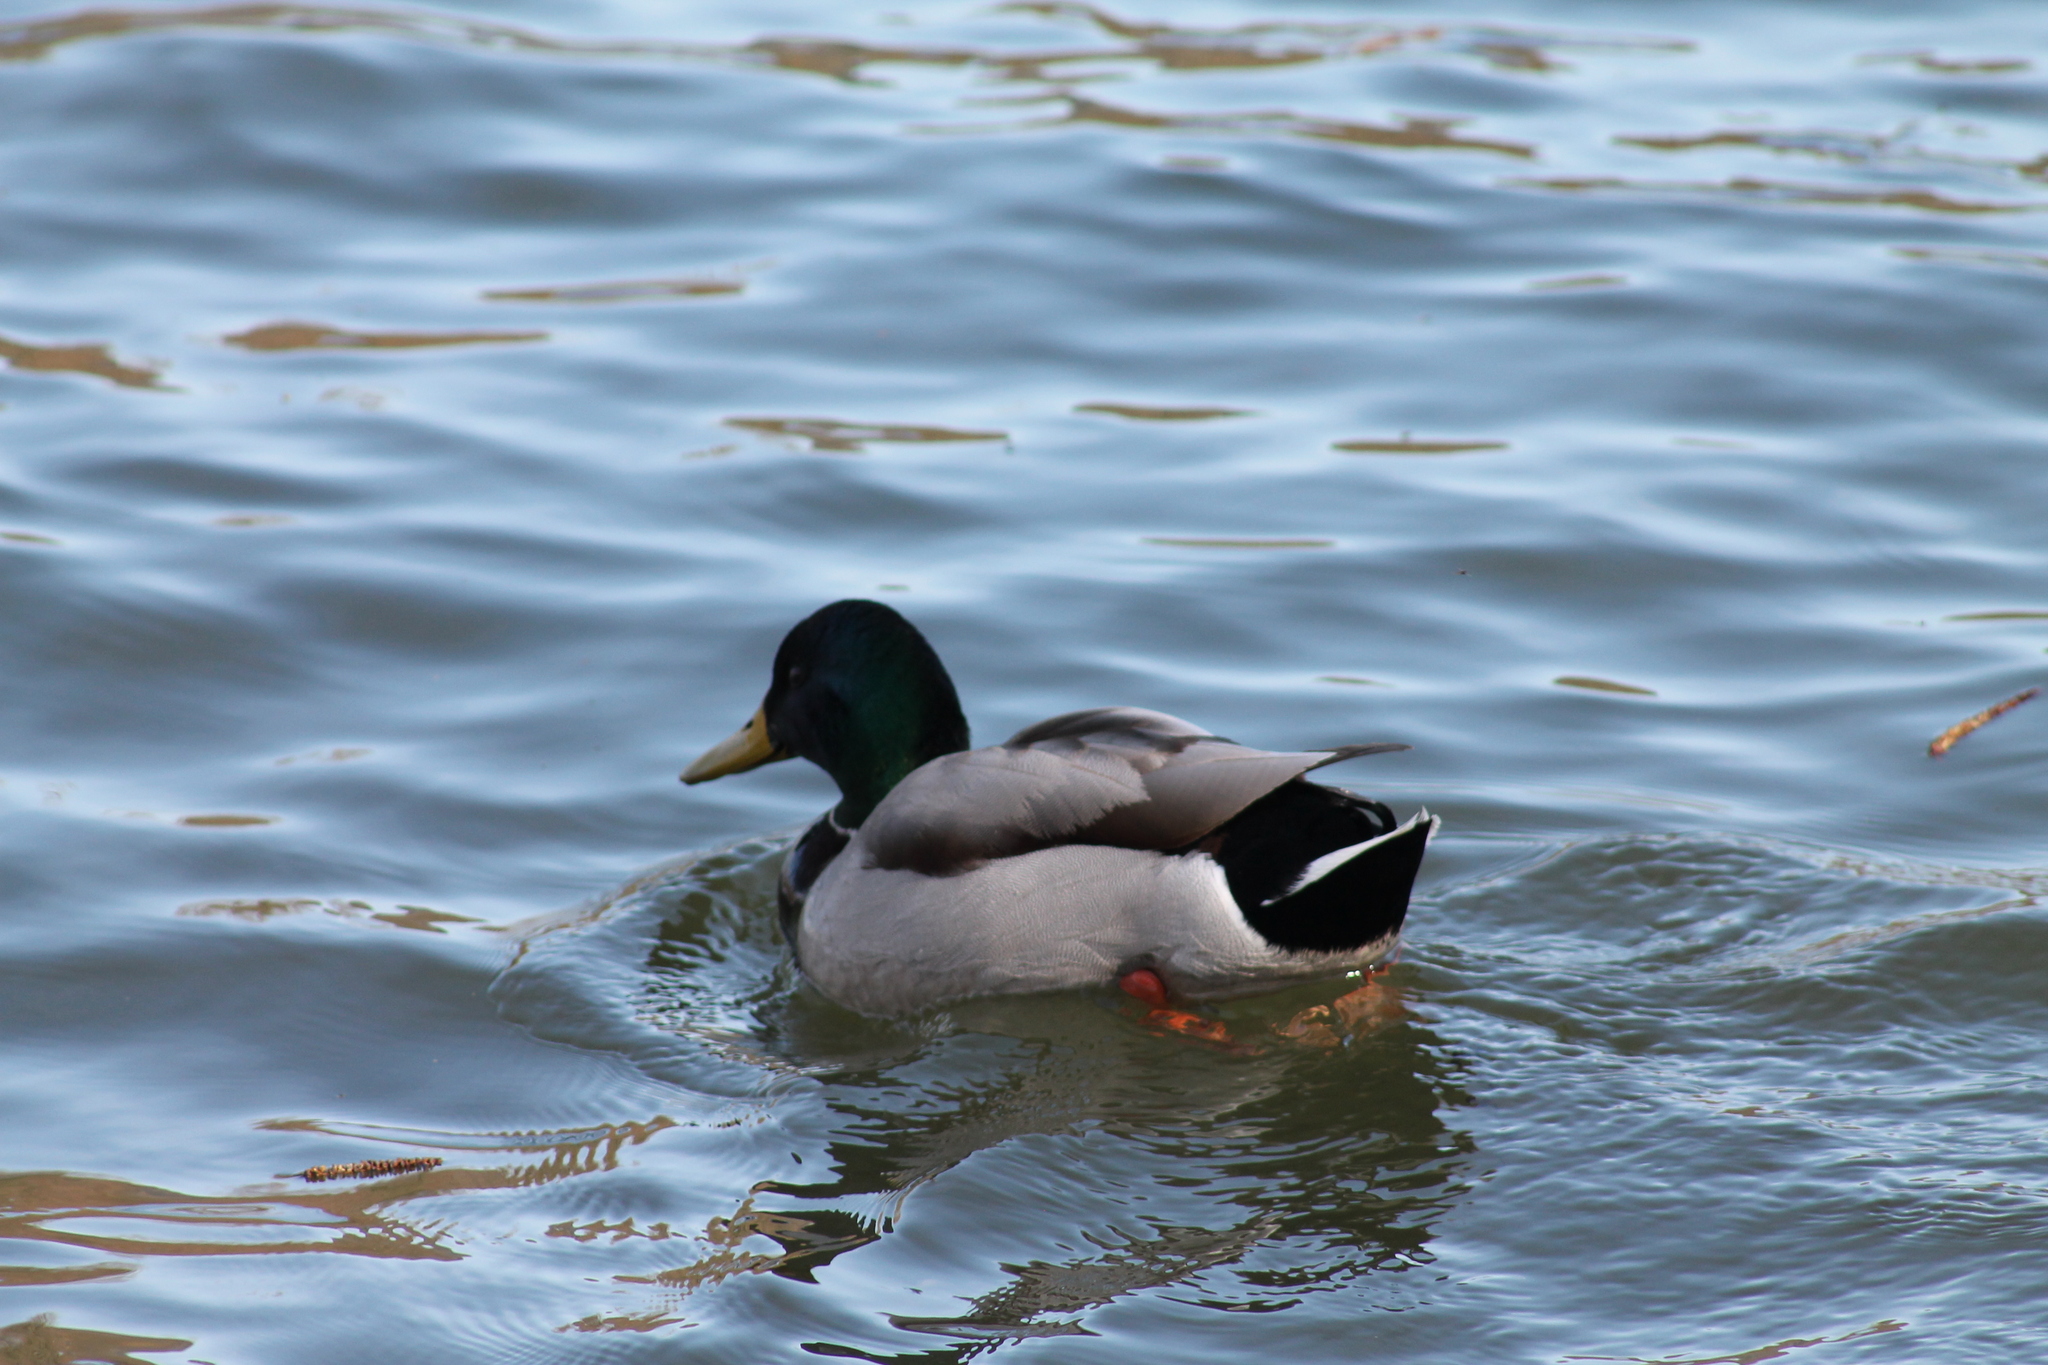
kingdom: Animalia
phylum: Chordata
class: Aves
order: Anseriformes
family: Anatidae
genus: Anas
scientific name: Anas platyrhynchos
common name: Mallard
